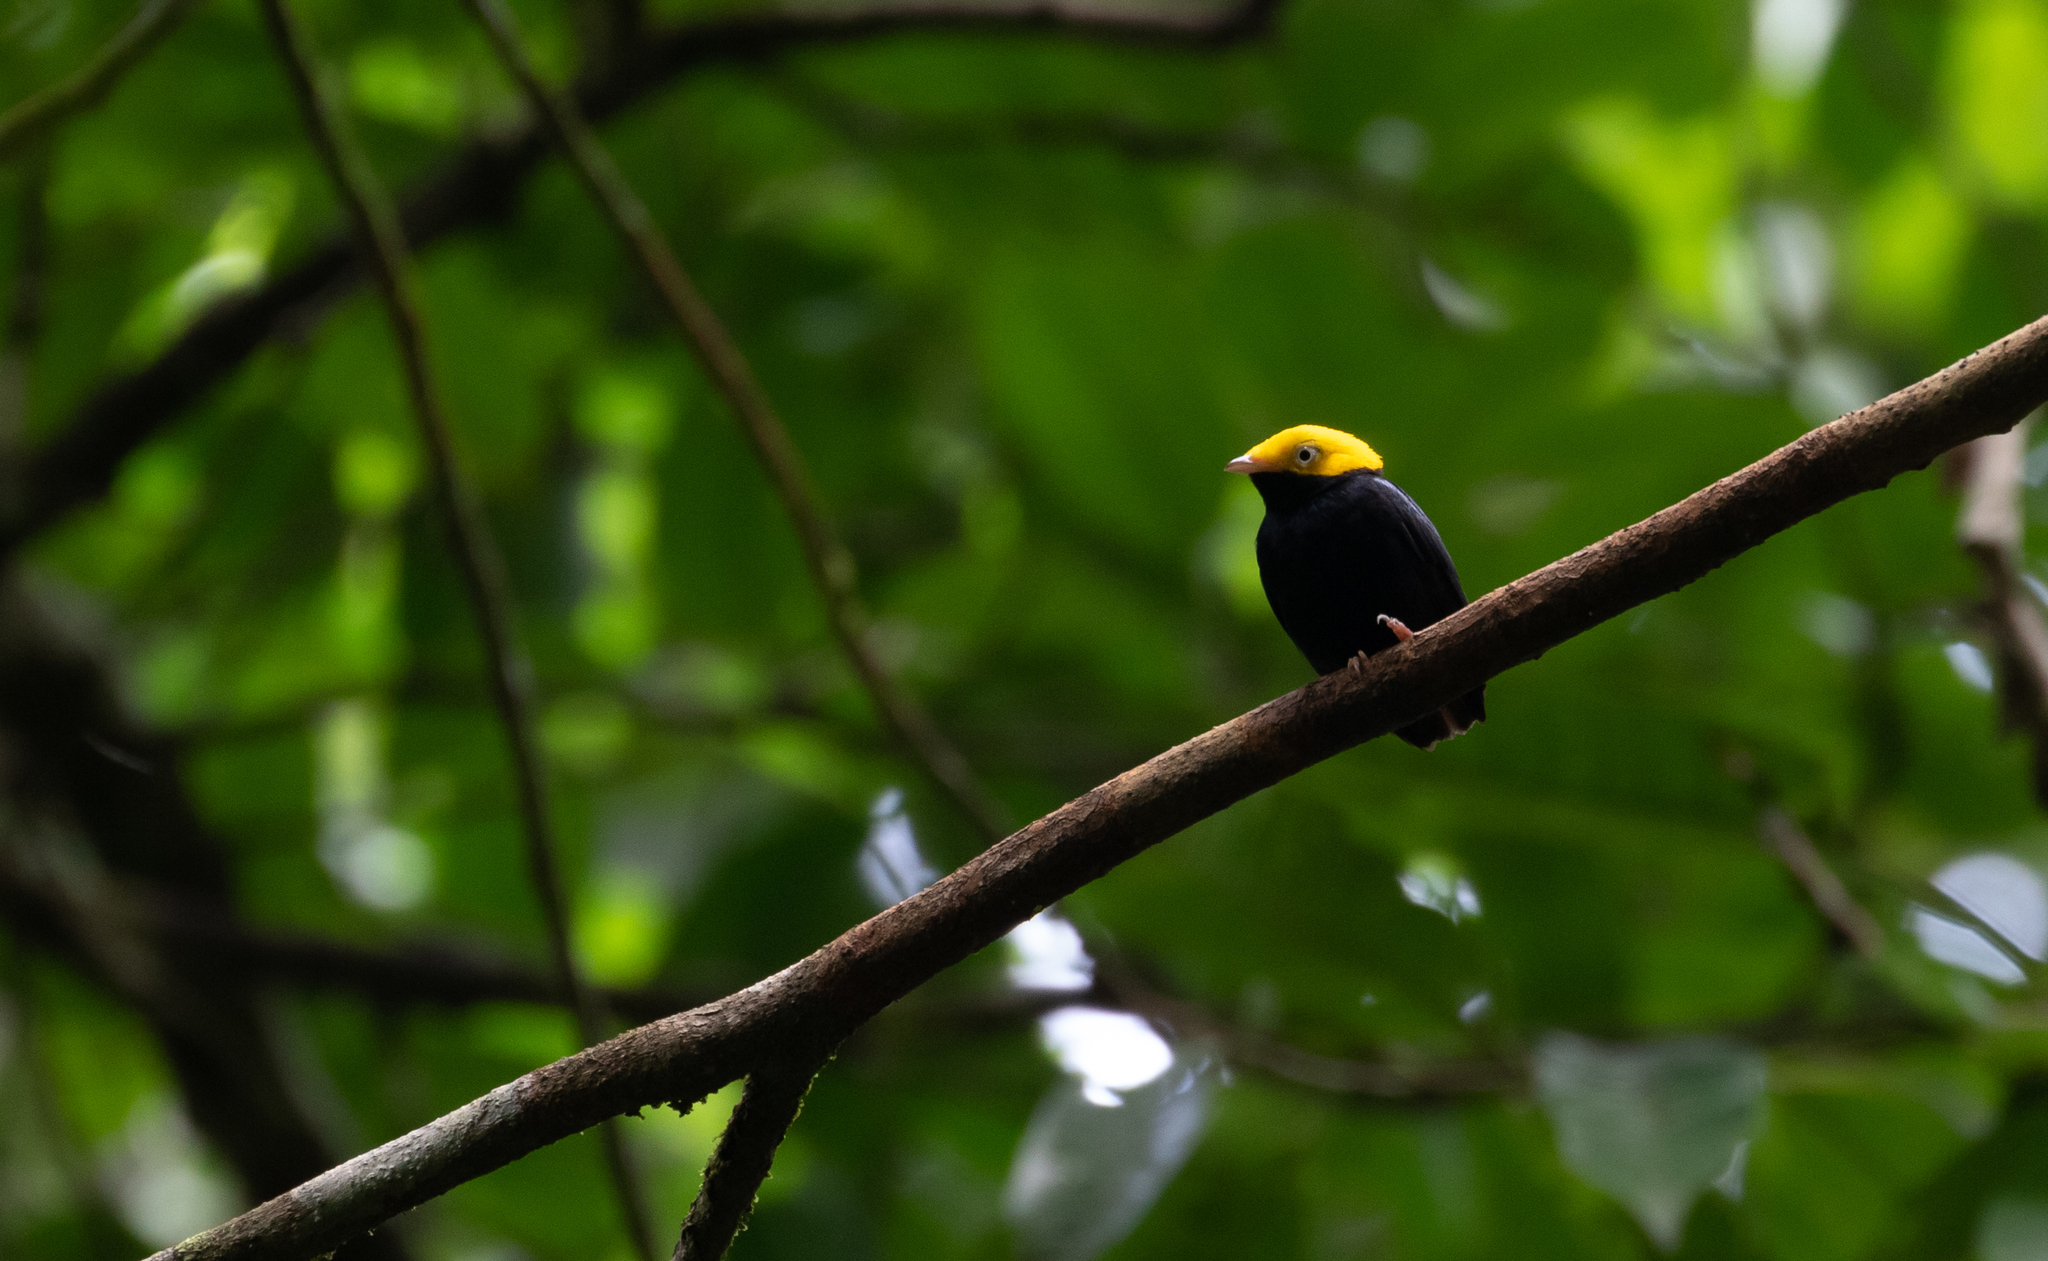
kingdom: Animalia
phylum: Chordata
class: Aves
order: Passeriformes
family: Pipridae
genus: Pipra
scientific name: Pipra erythrocephala
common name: Golden-headed manakin
